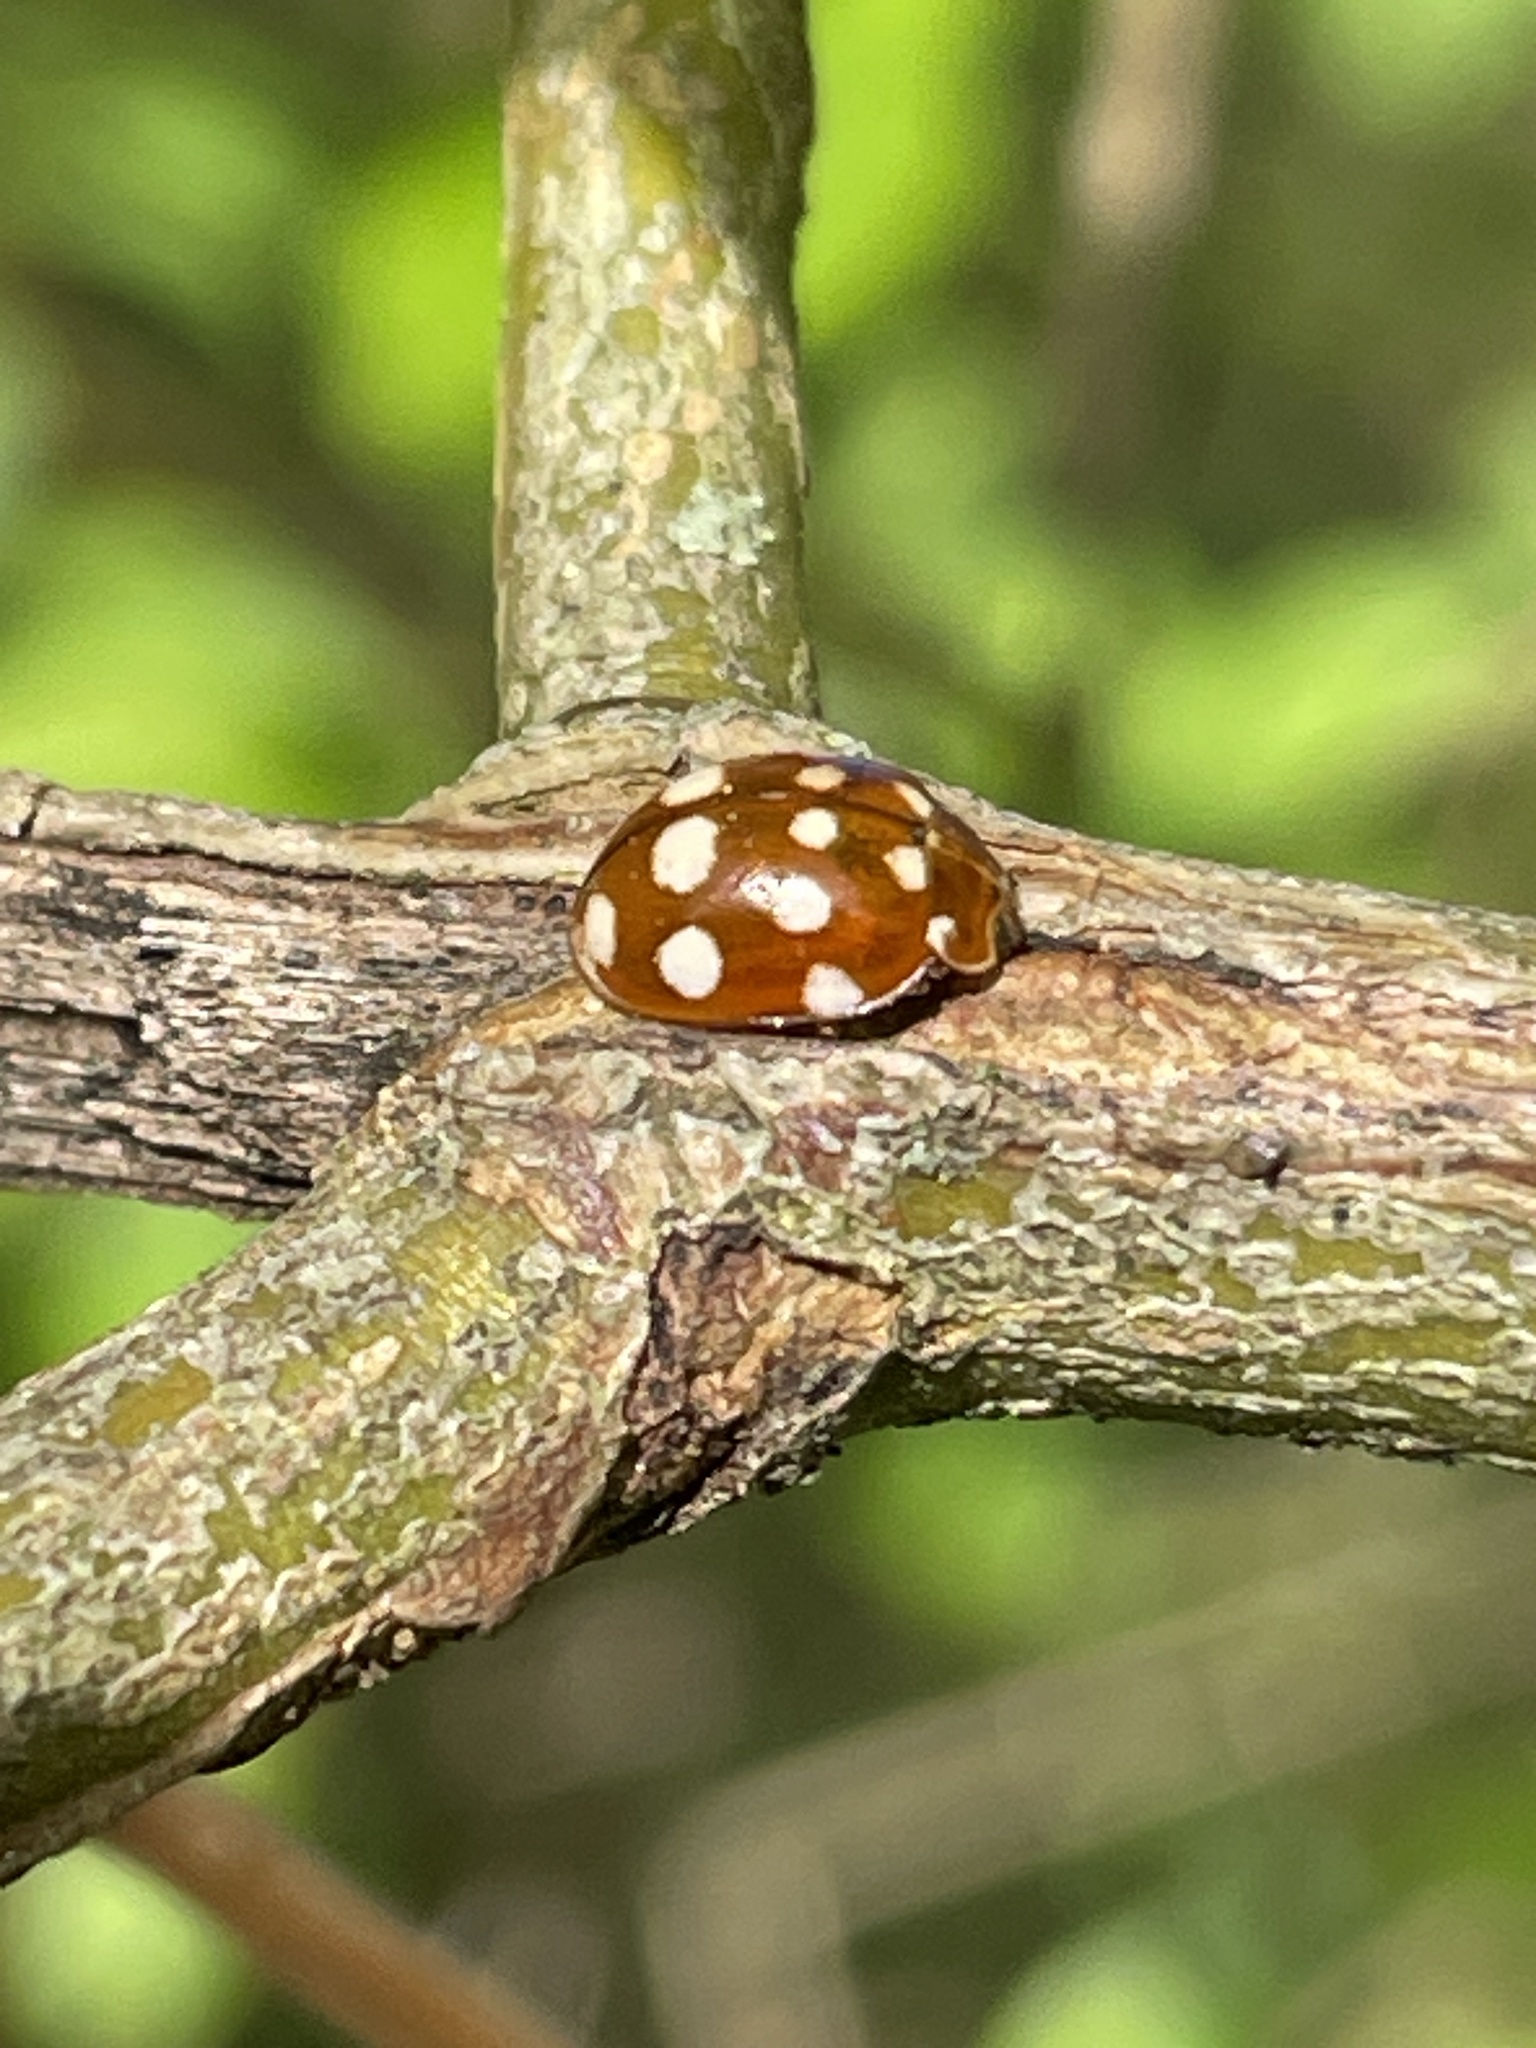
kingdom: Animalia
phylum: Arthropoda
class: Insecta
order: Coleoptera
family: Coccinellidae
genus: Calvia
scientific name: Calvia quatuordecimguttata
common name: Cream-spot ladybird
